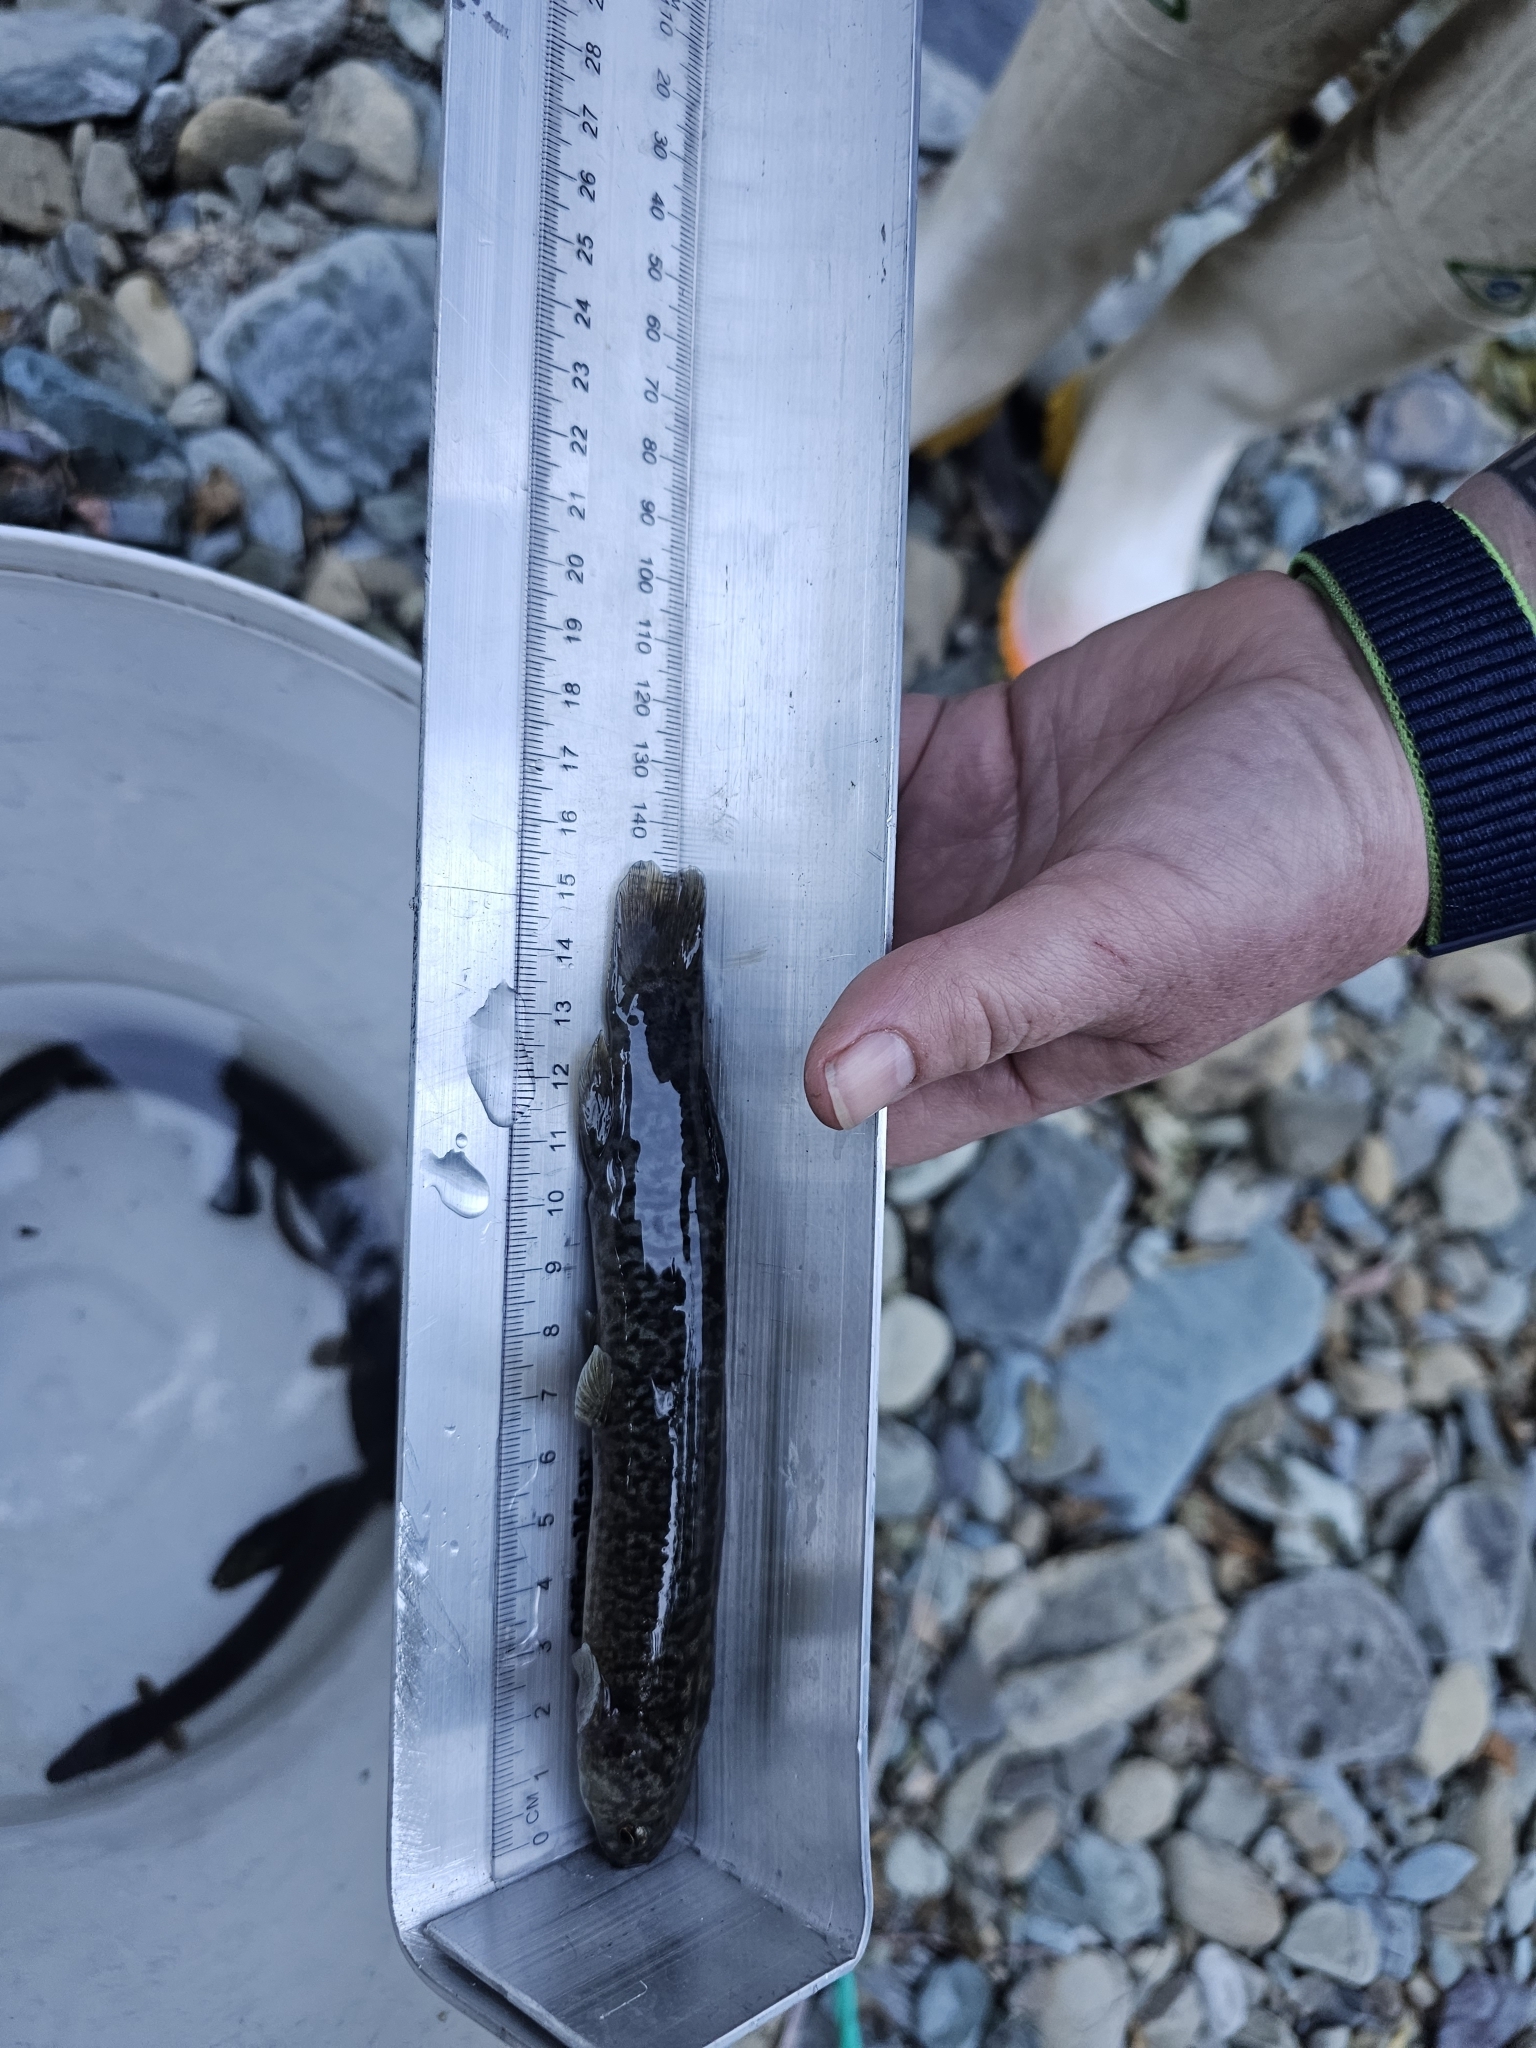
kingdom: Animalia
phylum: Chordata
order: Osmeriformes
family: Galaxiidae
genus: Galaxias
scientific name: Galaxias brevipinnis
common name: Koaro
